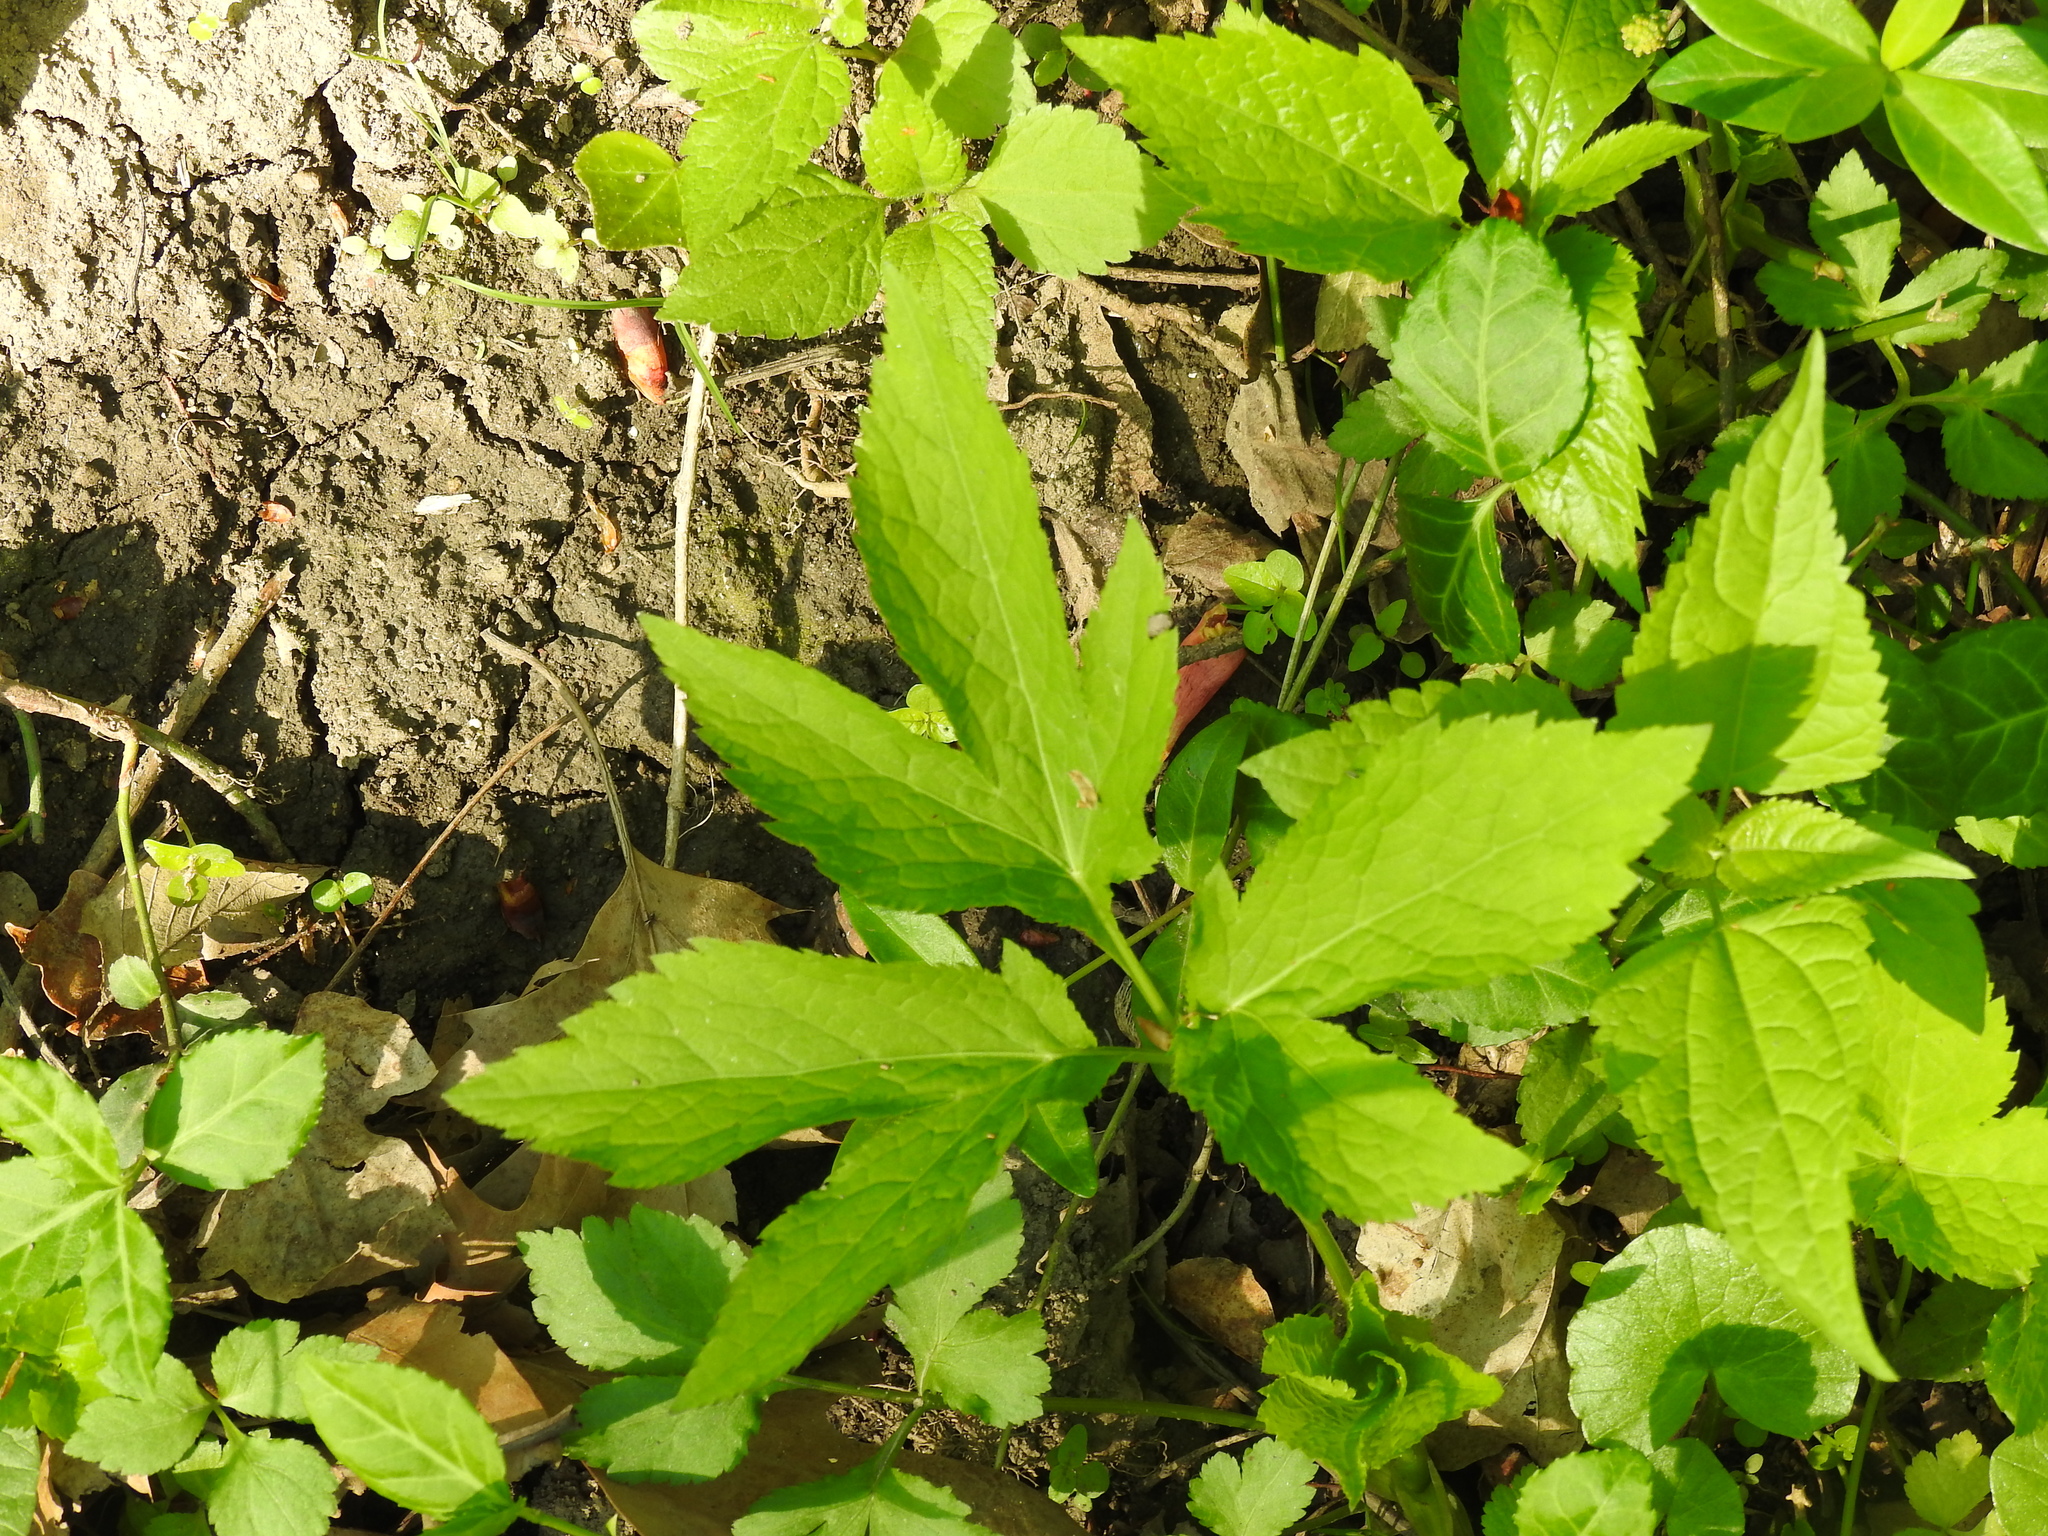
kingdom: Plantae
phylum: Tracheophyta
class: Magnoliopsida
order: Apiales
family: Apiaceae
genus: Cryptotaenia
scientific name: Cryptotaenia canadensis
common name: Honewort
